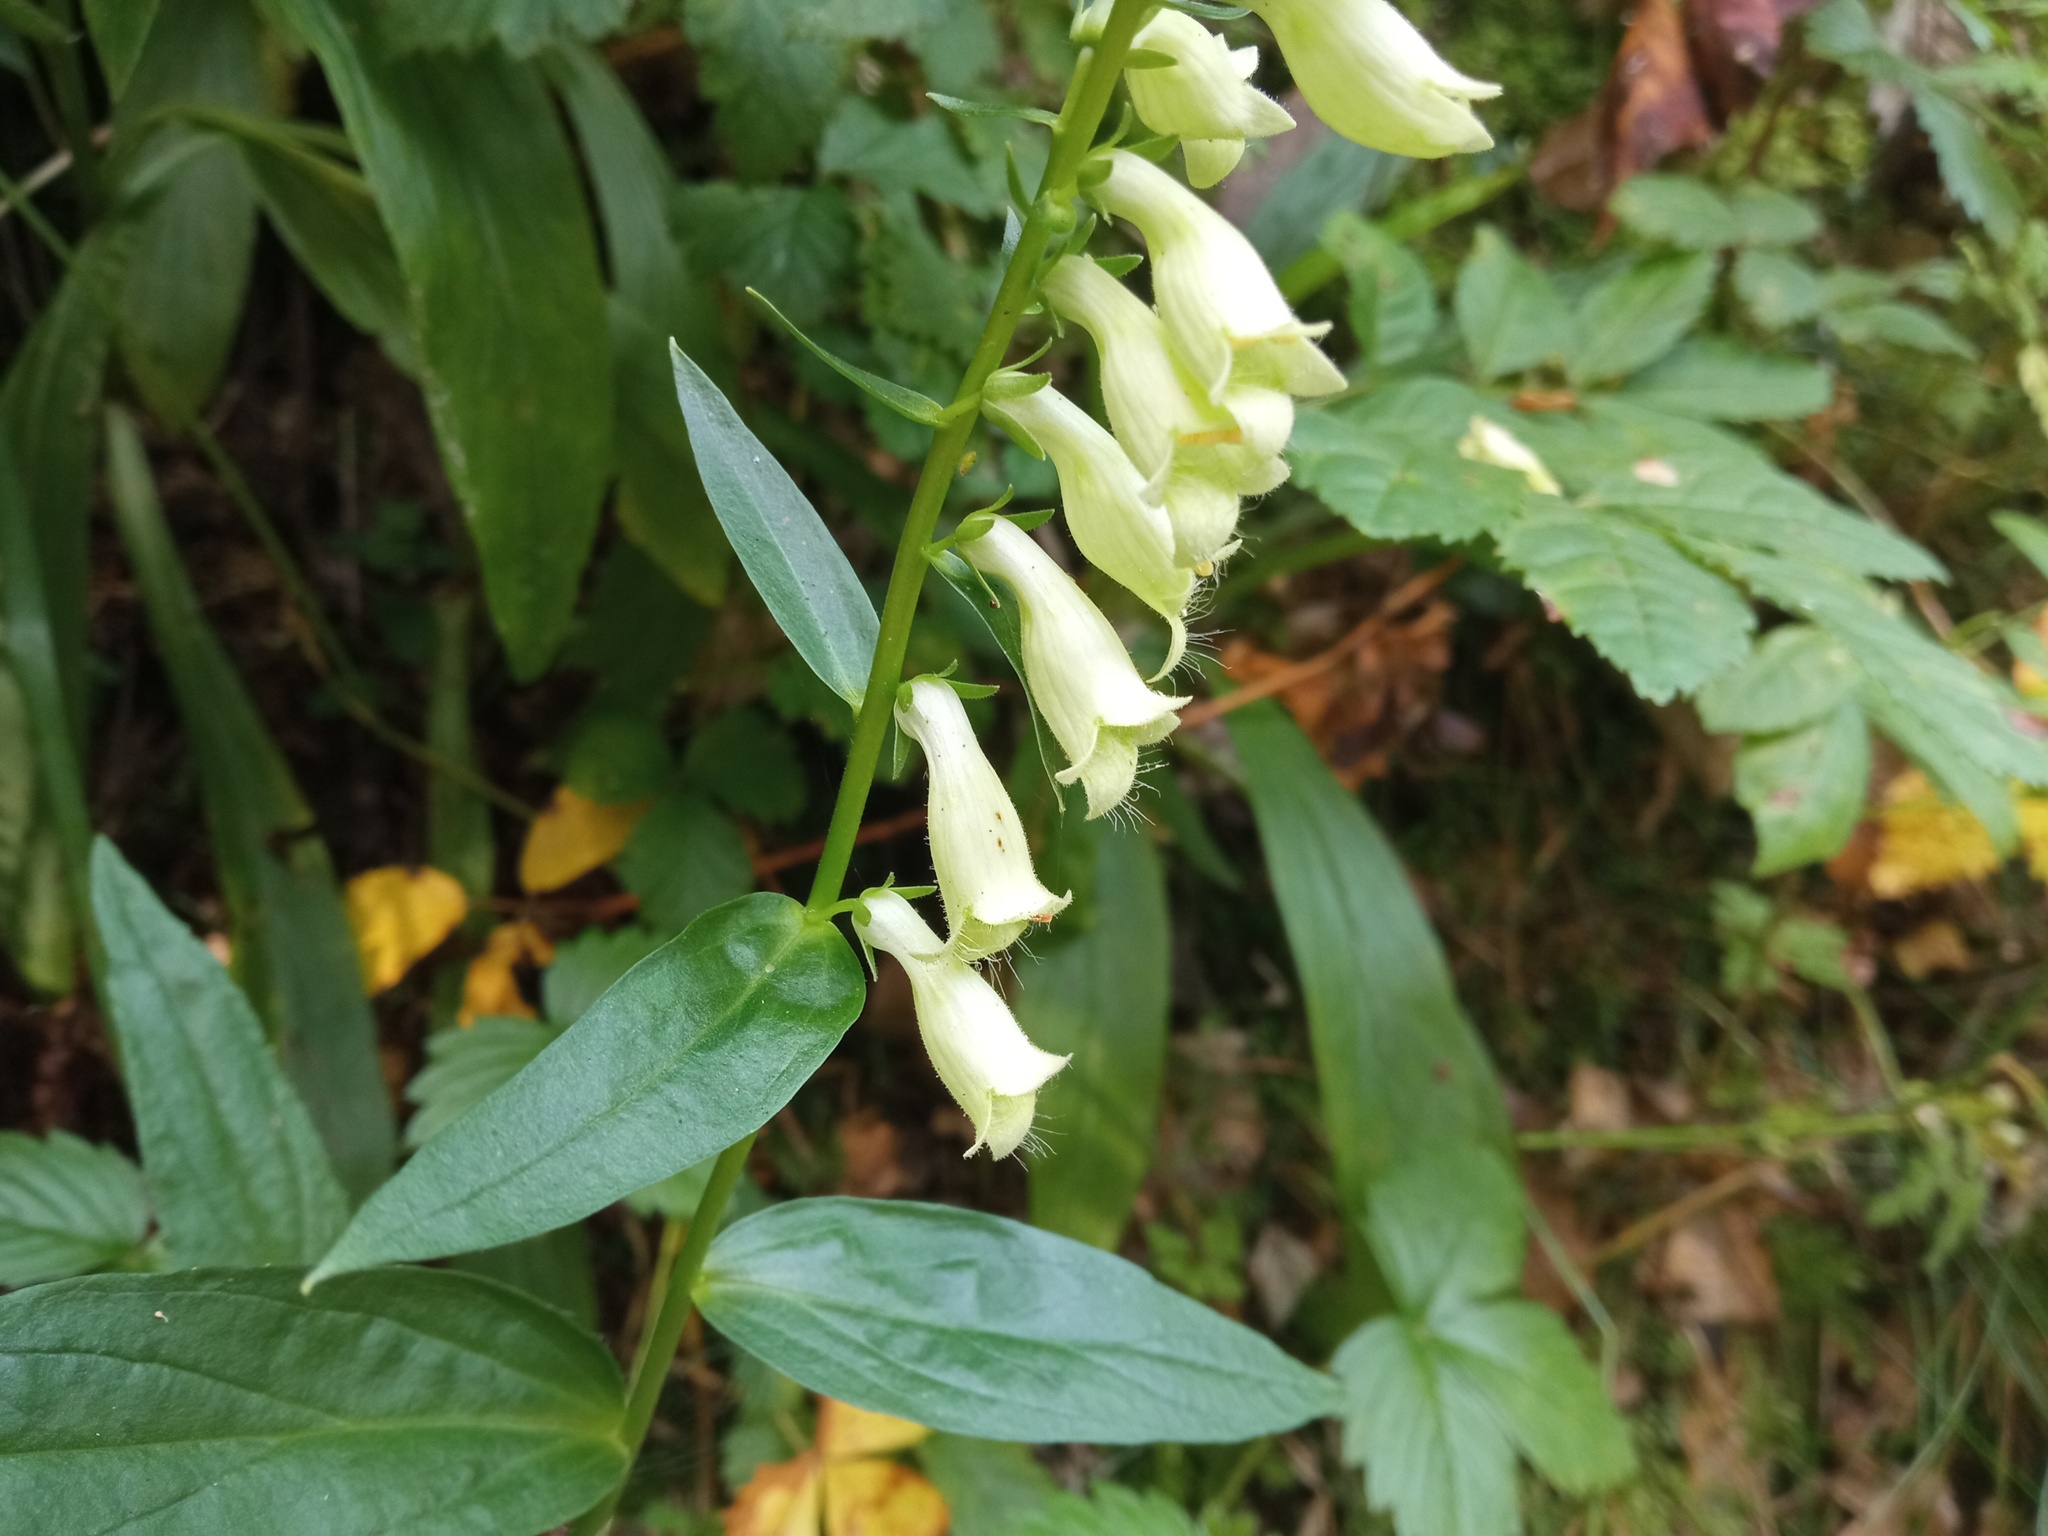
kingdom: Plantae
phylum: Tracheophyta
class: Magnoliopsida
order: Lamiales
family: Plantaginaceae
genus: Digitalis
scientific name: Digitalis lutea
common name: Straw foxglove
